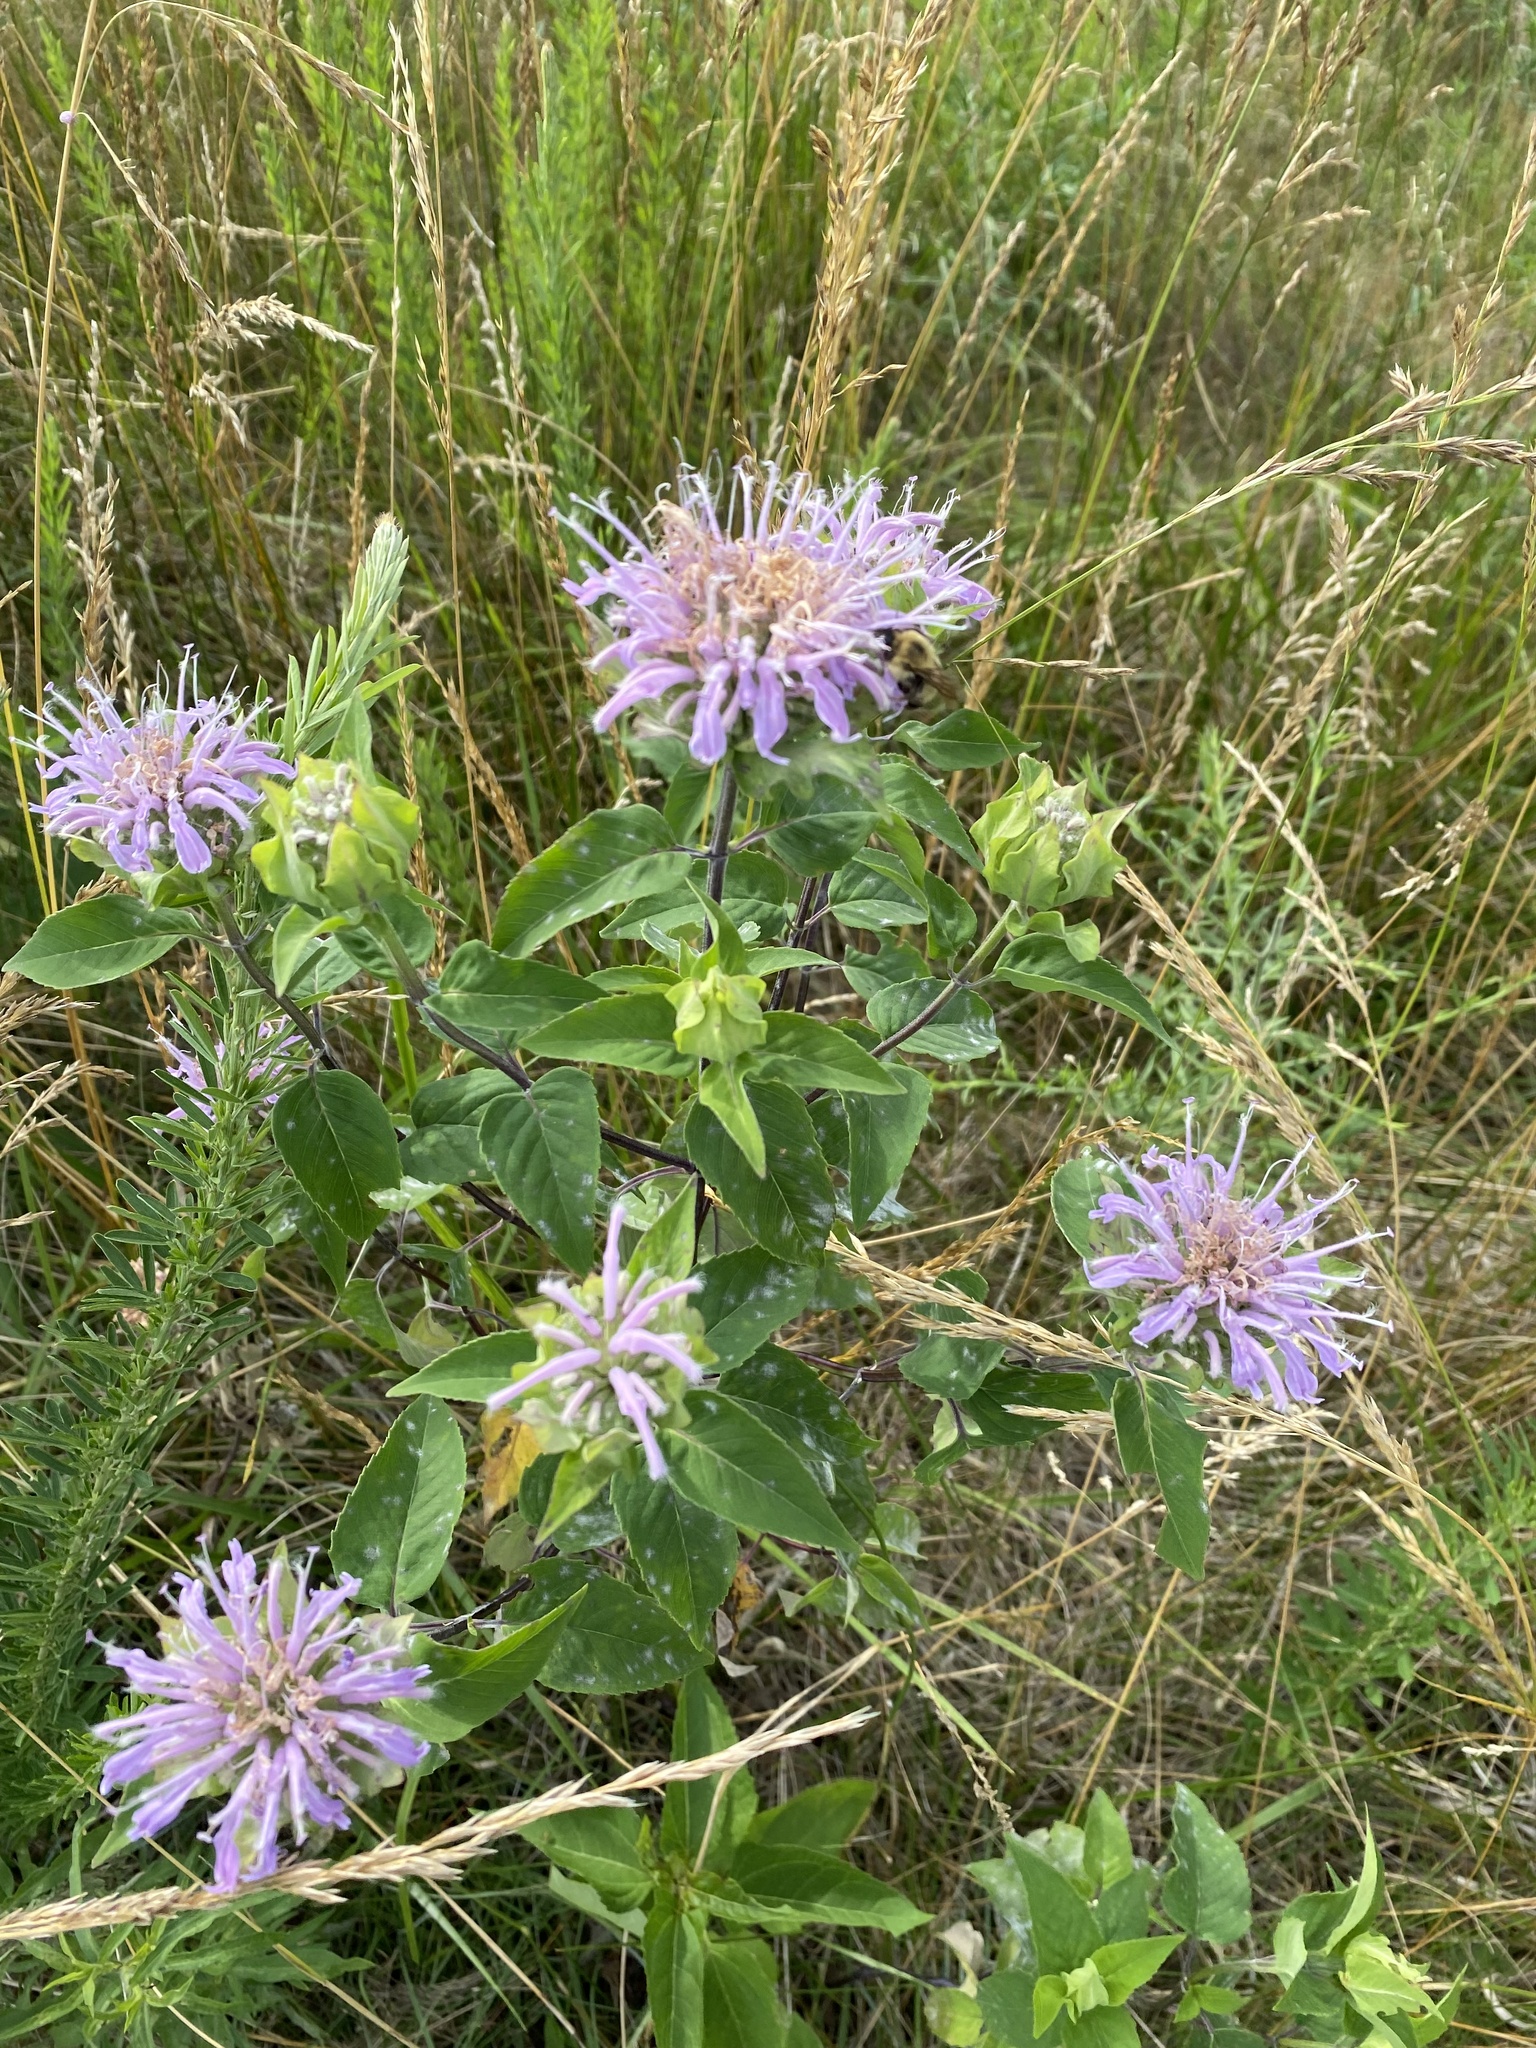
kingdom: Plantae
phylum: Tracheophyta
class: Magnoliopsida
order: Lamiales
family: Lamiaceae
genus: Monarda
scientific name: Monarda fistulosa
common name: Purple beebalm
